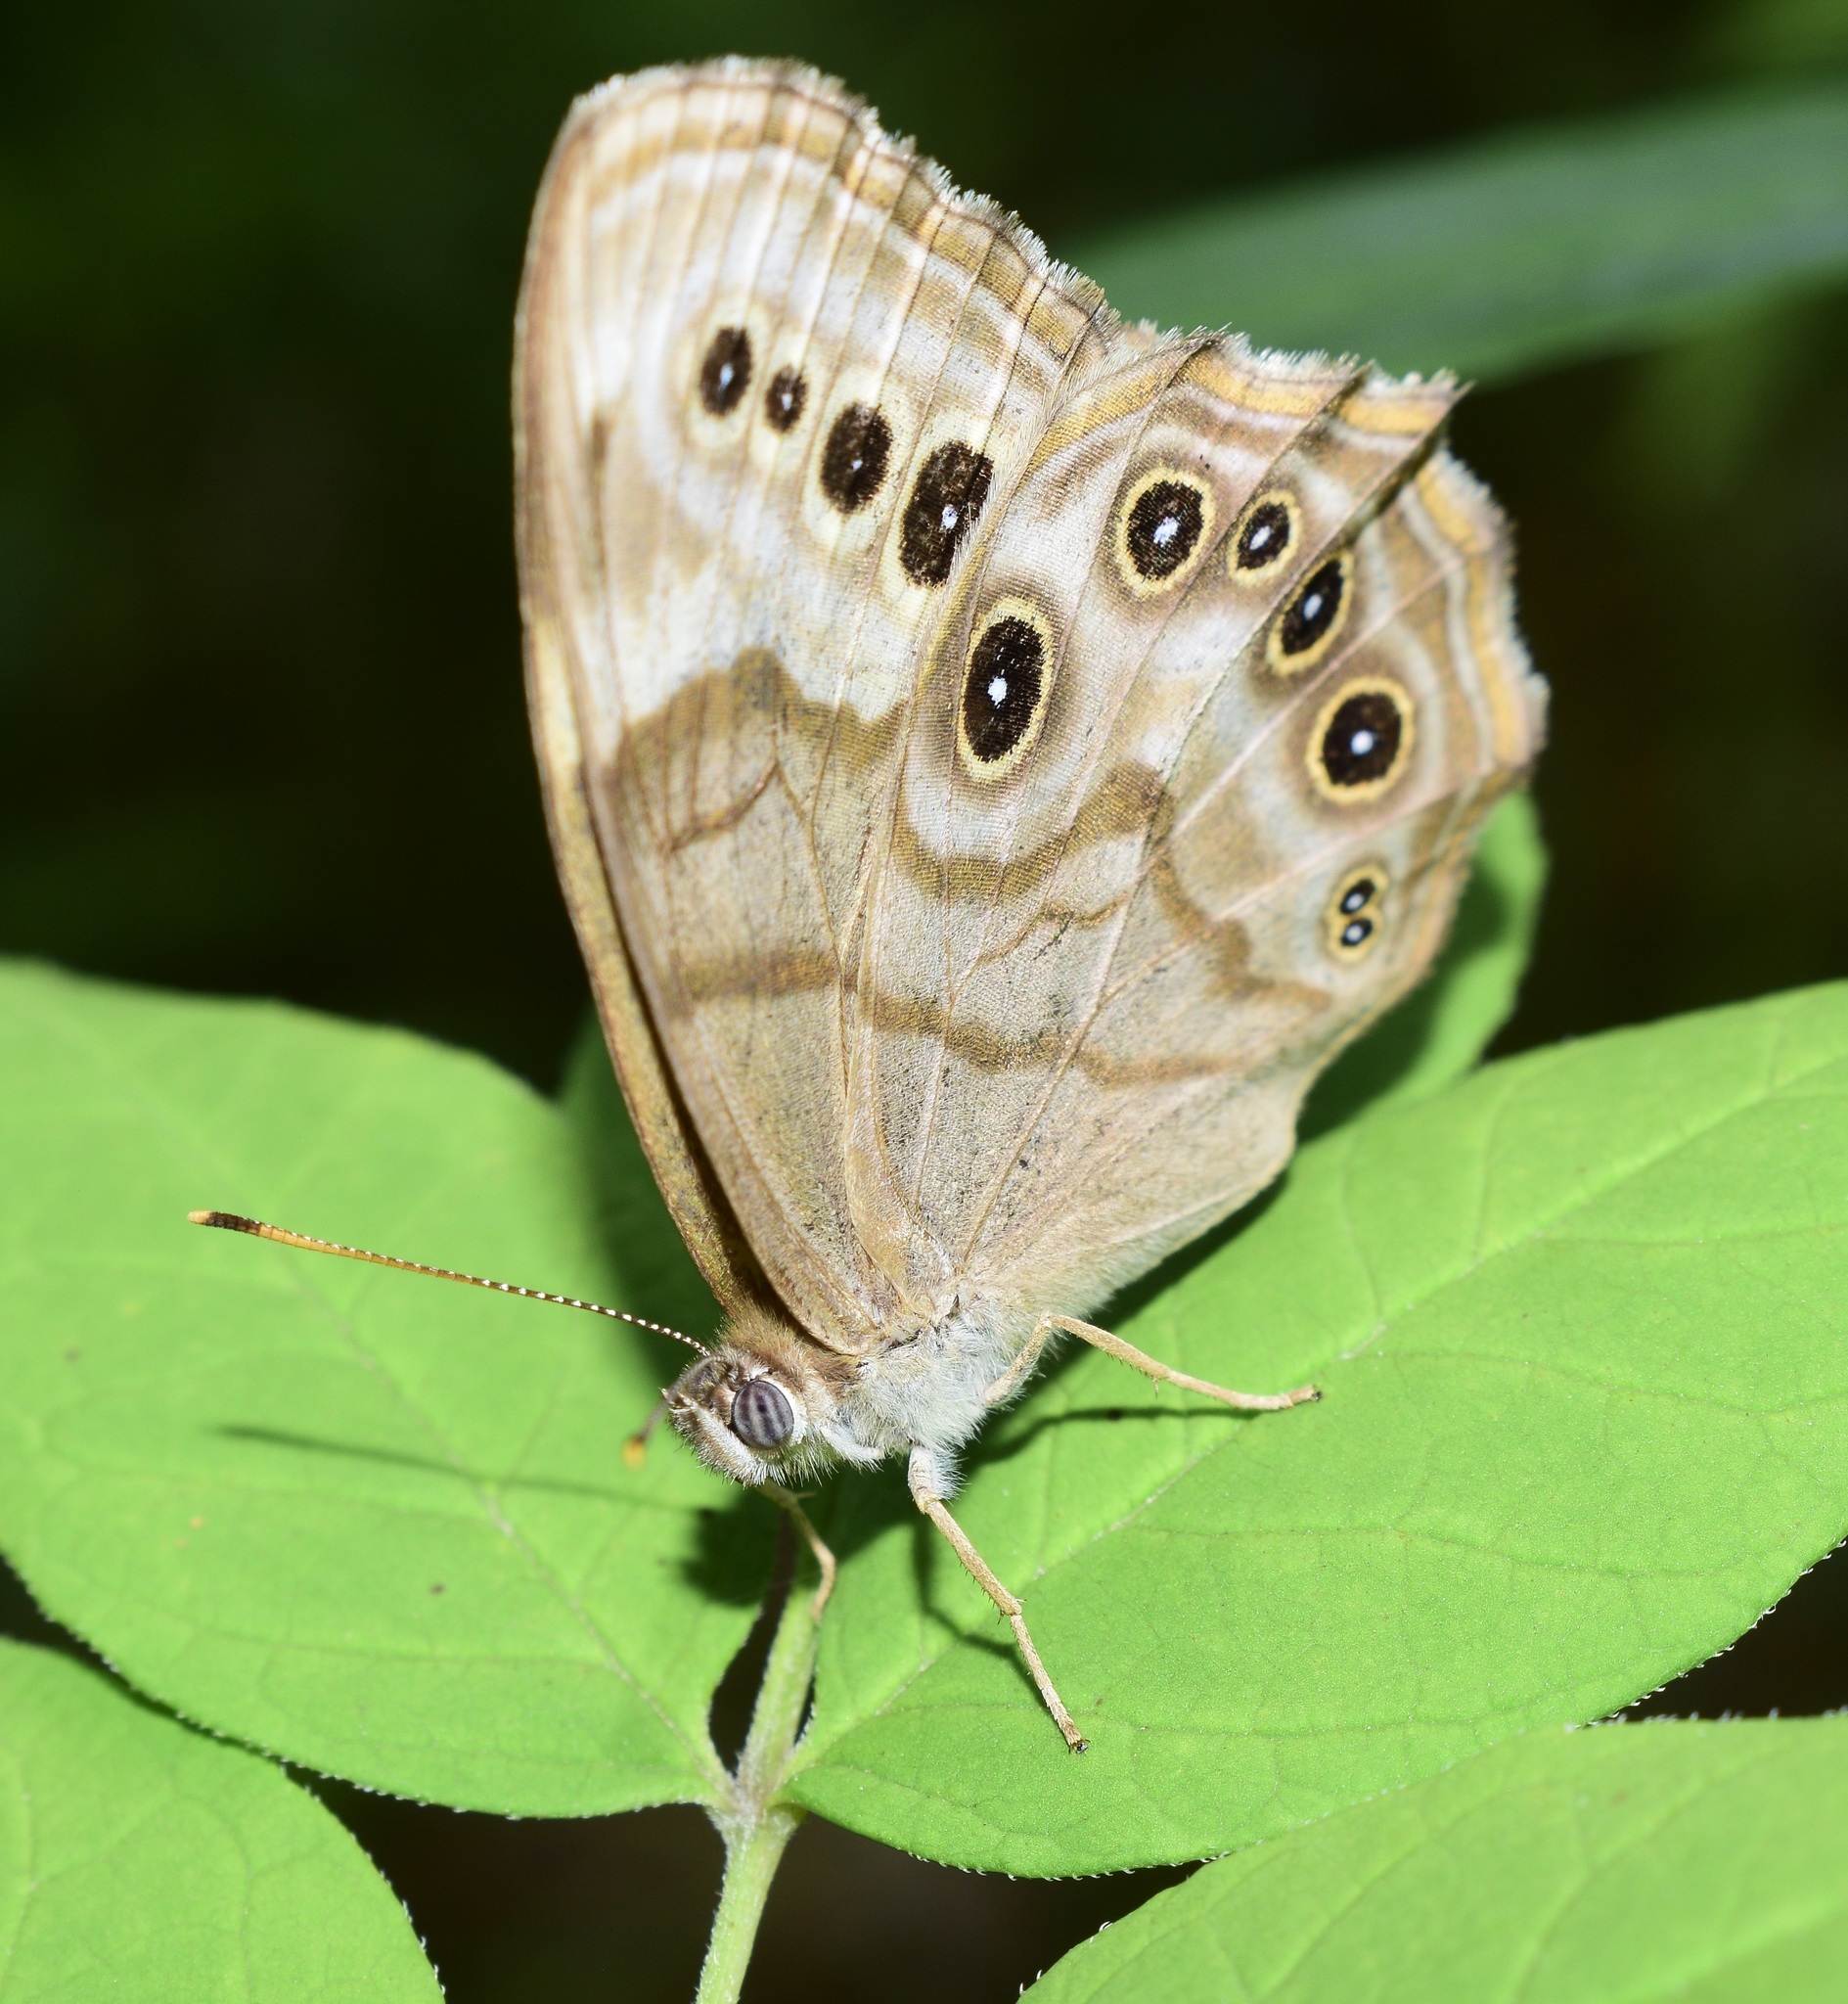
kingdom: Animalia
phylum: Arthropoda
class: Insecta
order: Lepidoptera
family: Nymphalidae
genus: Lethe
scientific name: Lethe anthedon
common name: Northern pearly-eye
